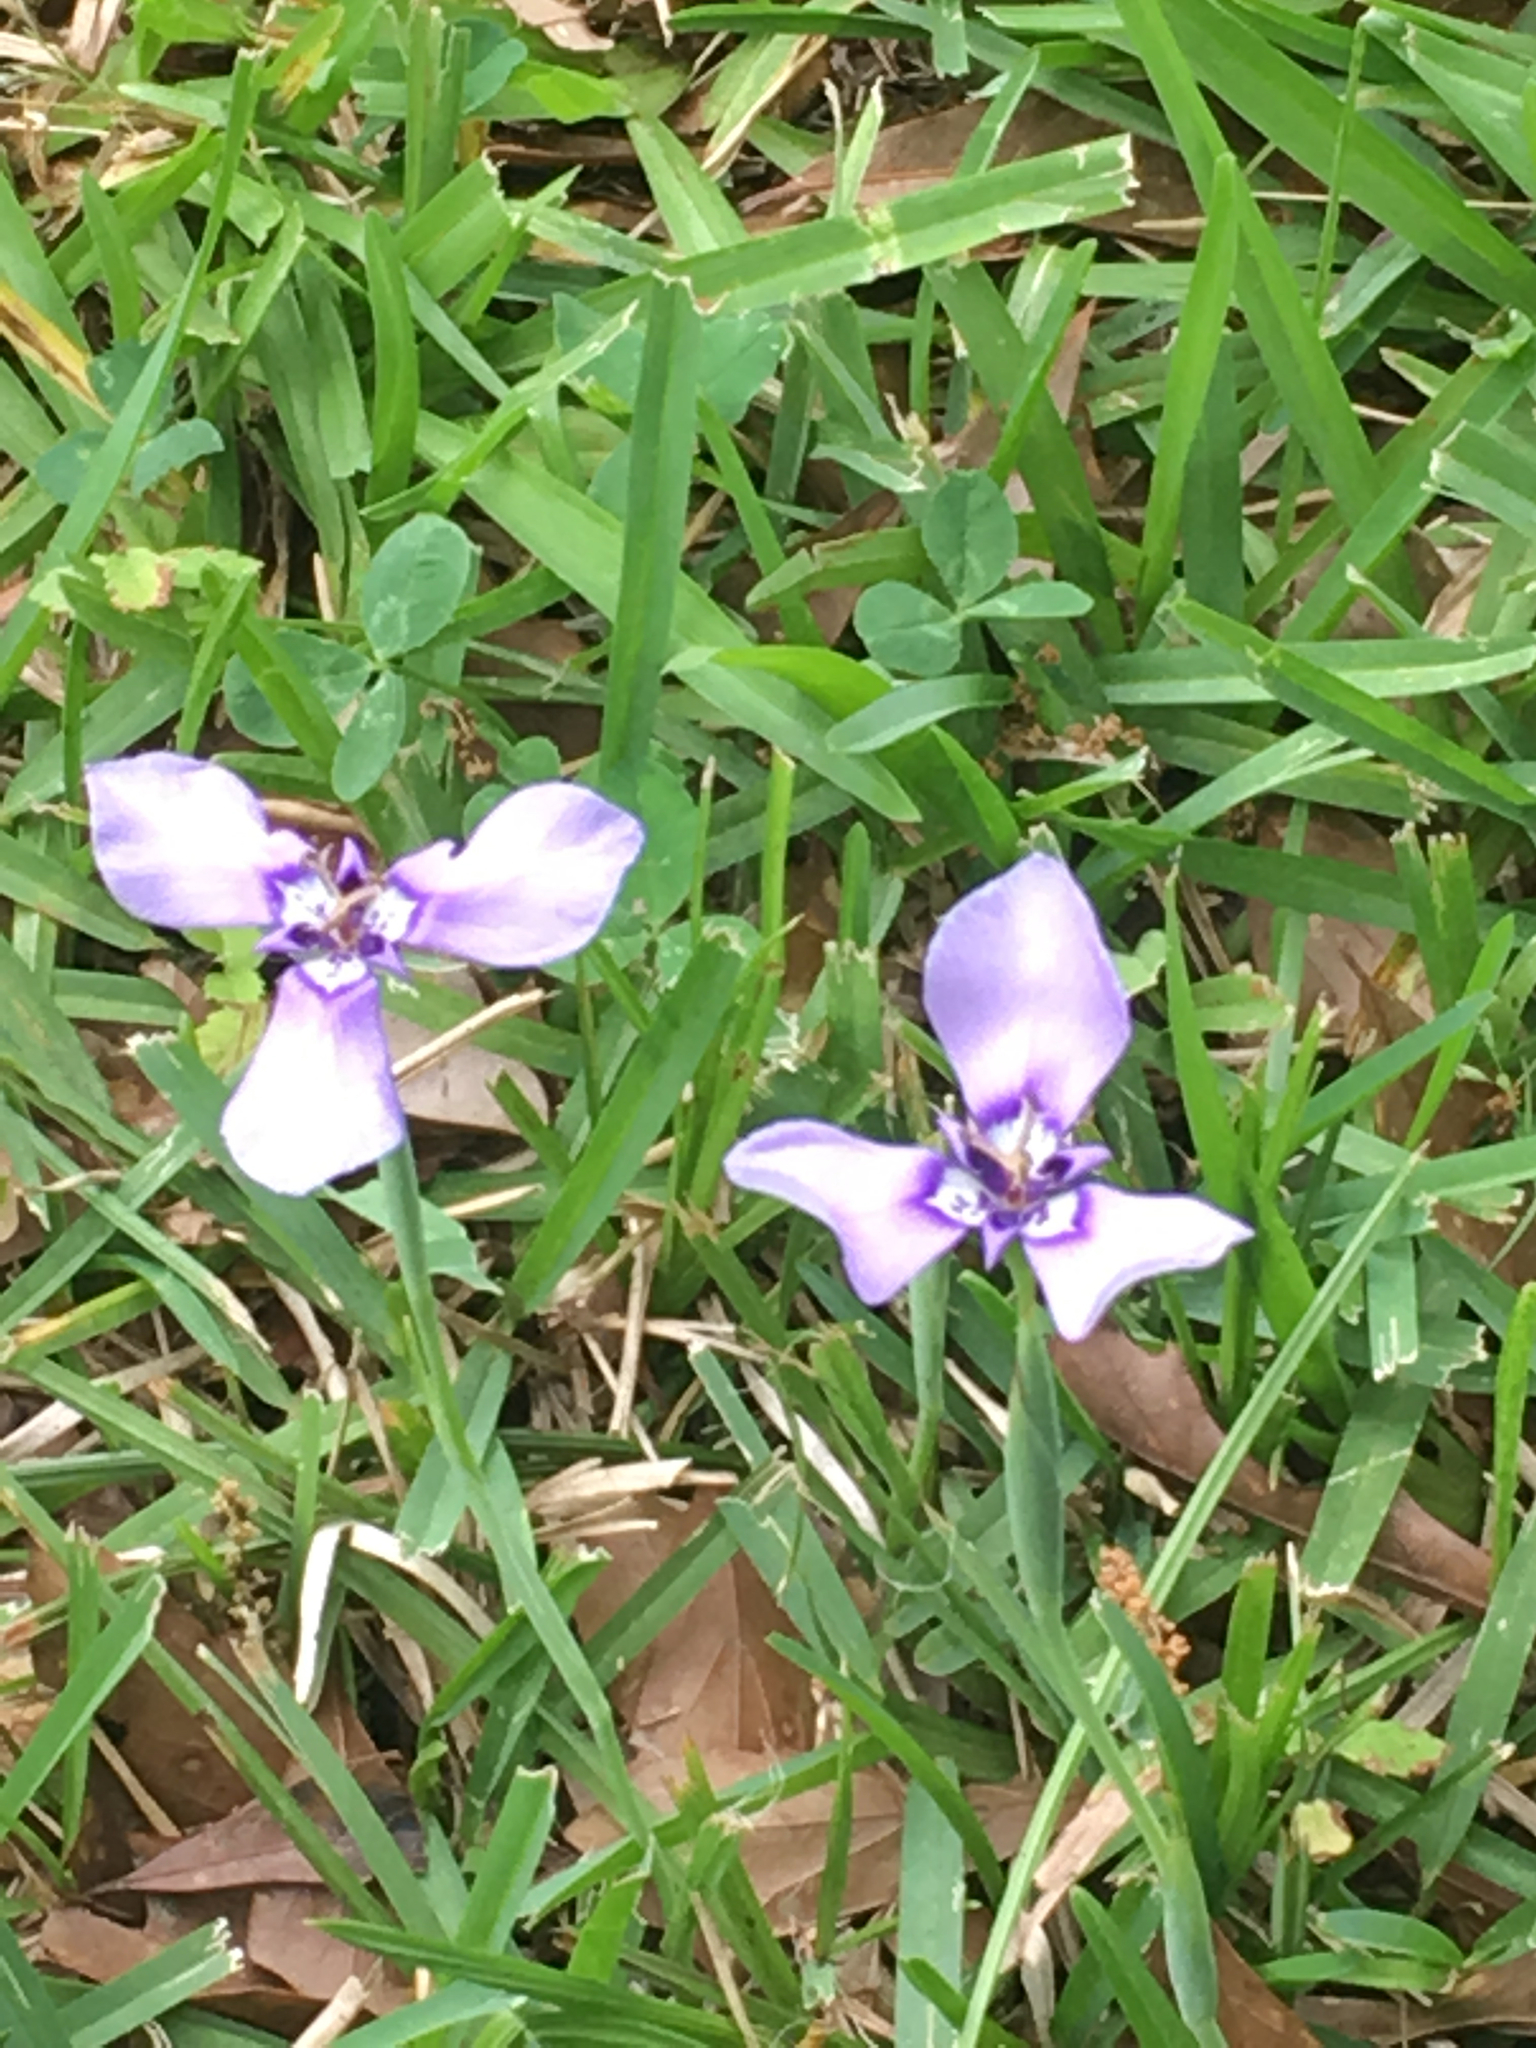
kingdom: Plantae
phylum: Tracheophyta
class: Liliopsida
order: Asparagales
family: Iridaceae
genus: Herbertia
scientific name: Herbertia lahue
